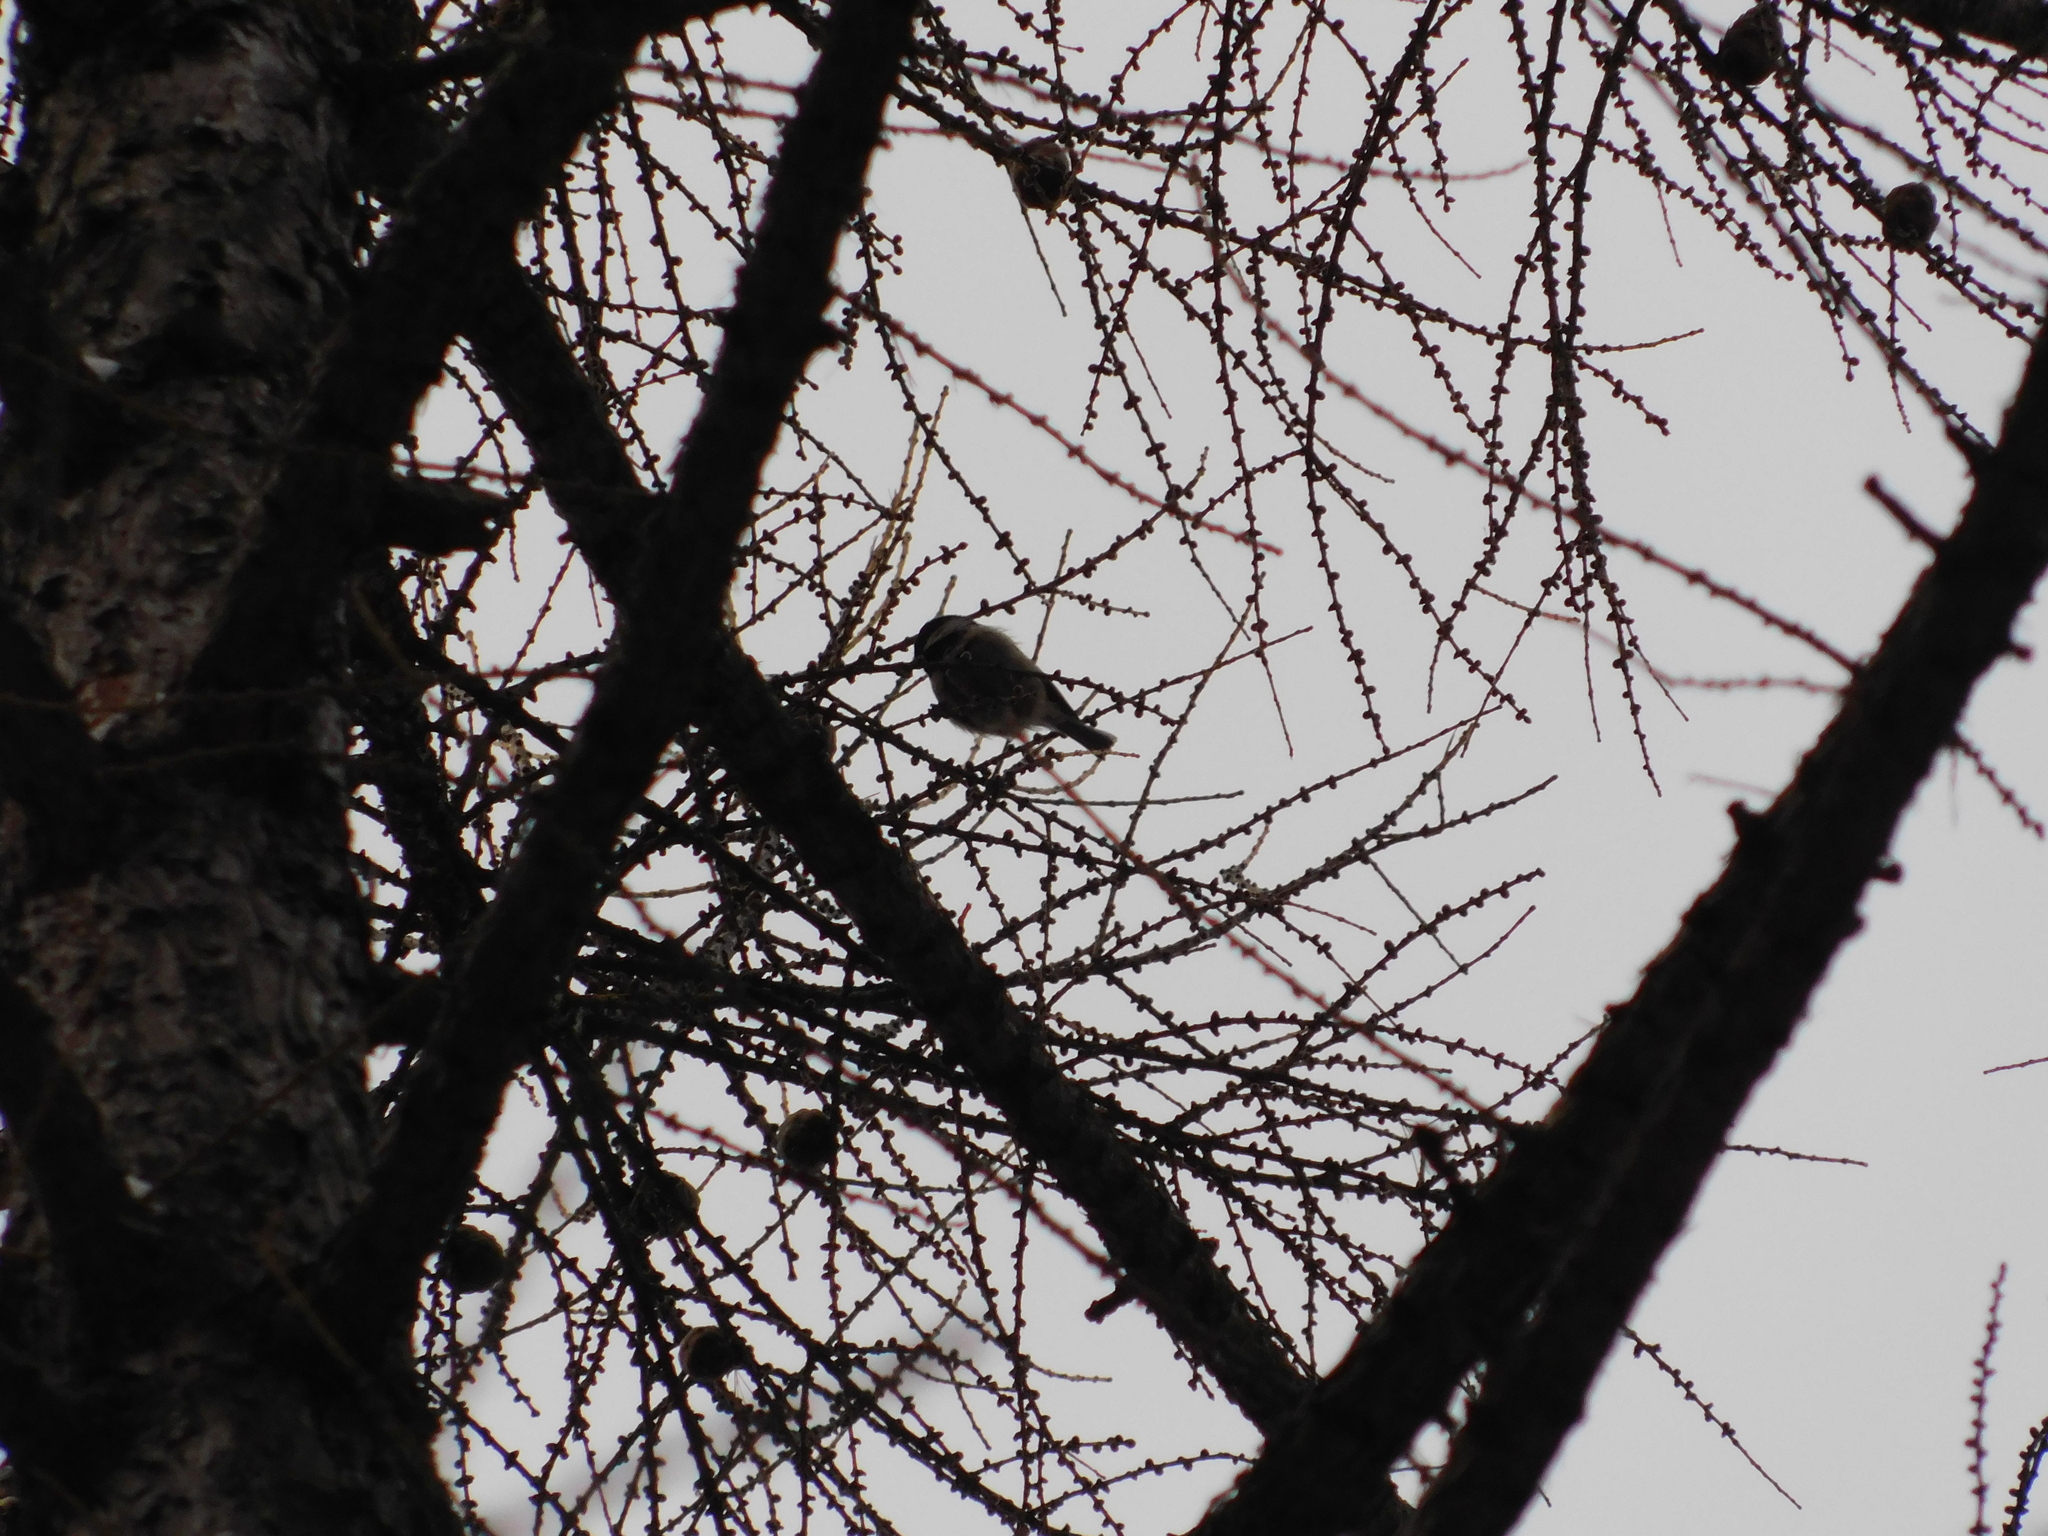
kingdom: Animalia
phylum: Chordata
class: Aves
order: Passeriformes
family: Paridae
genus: Periparus
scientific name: Periparus ater
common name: Coal tit
